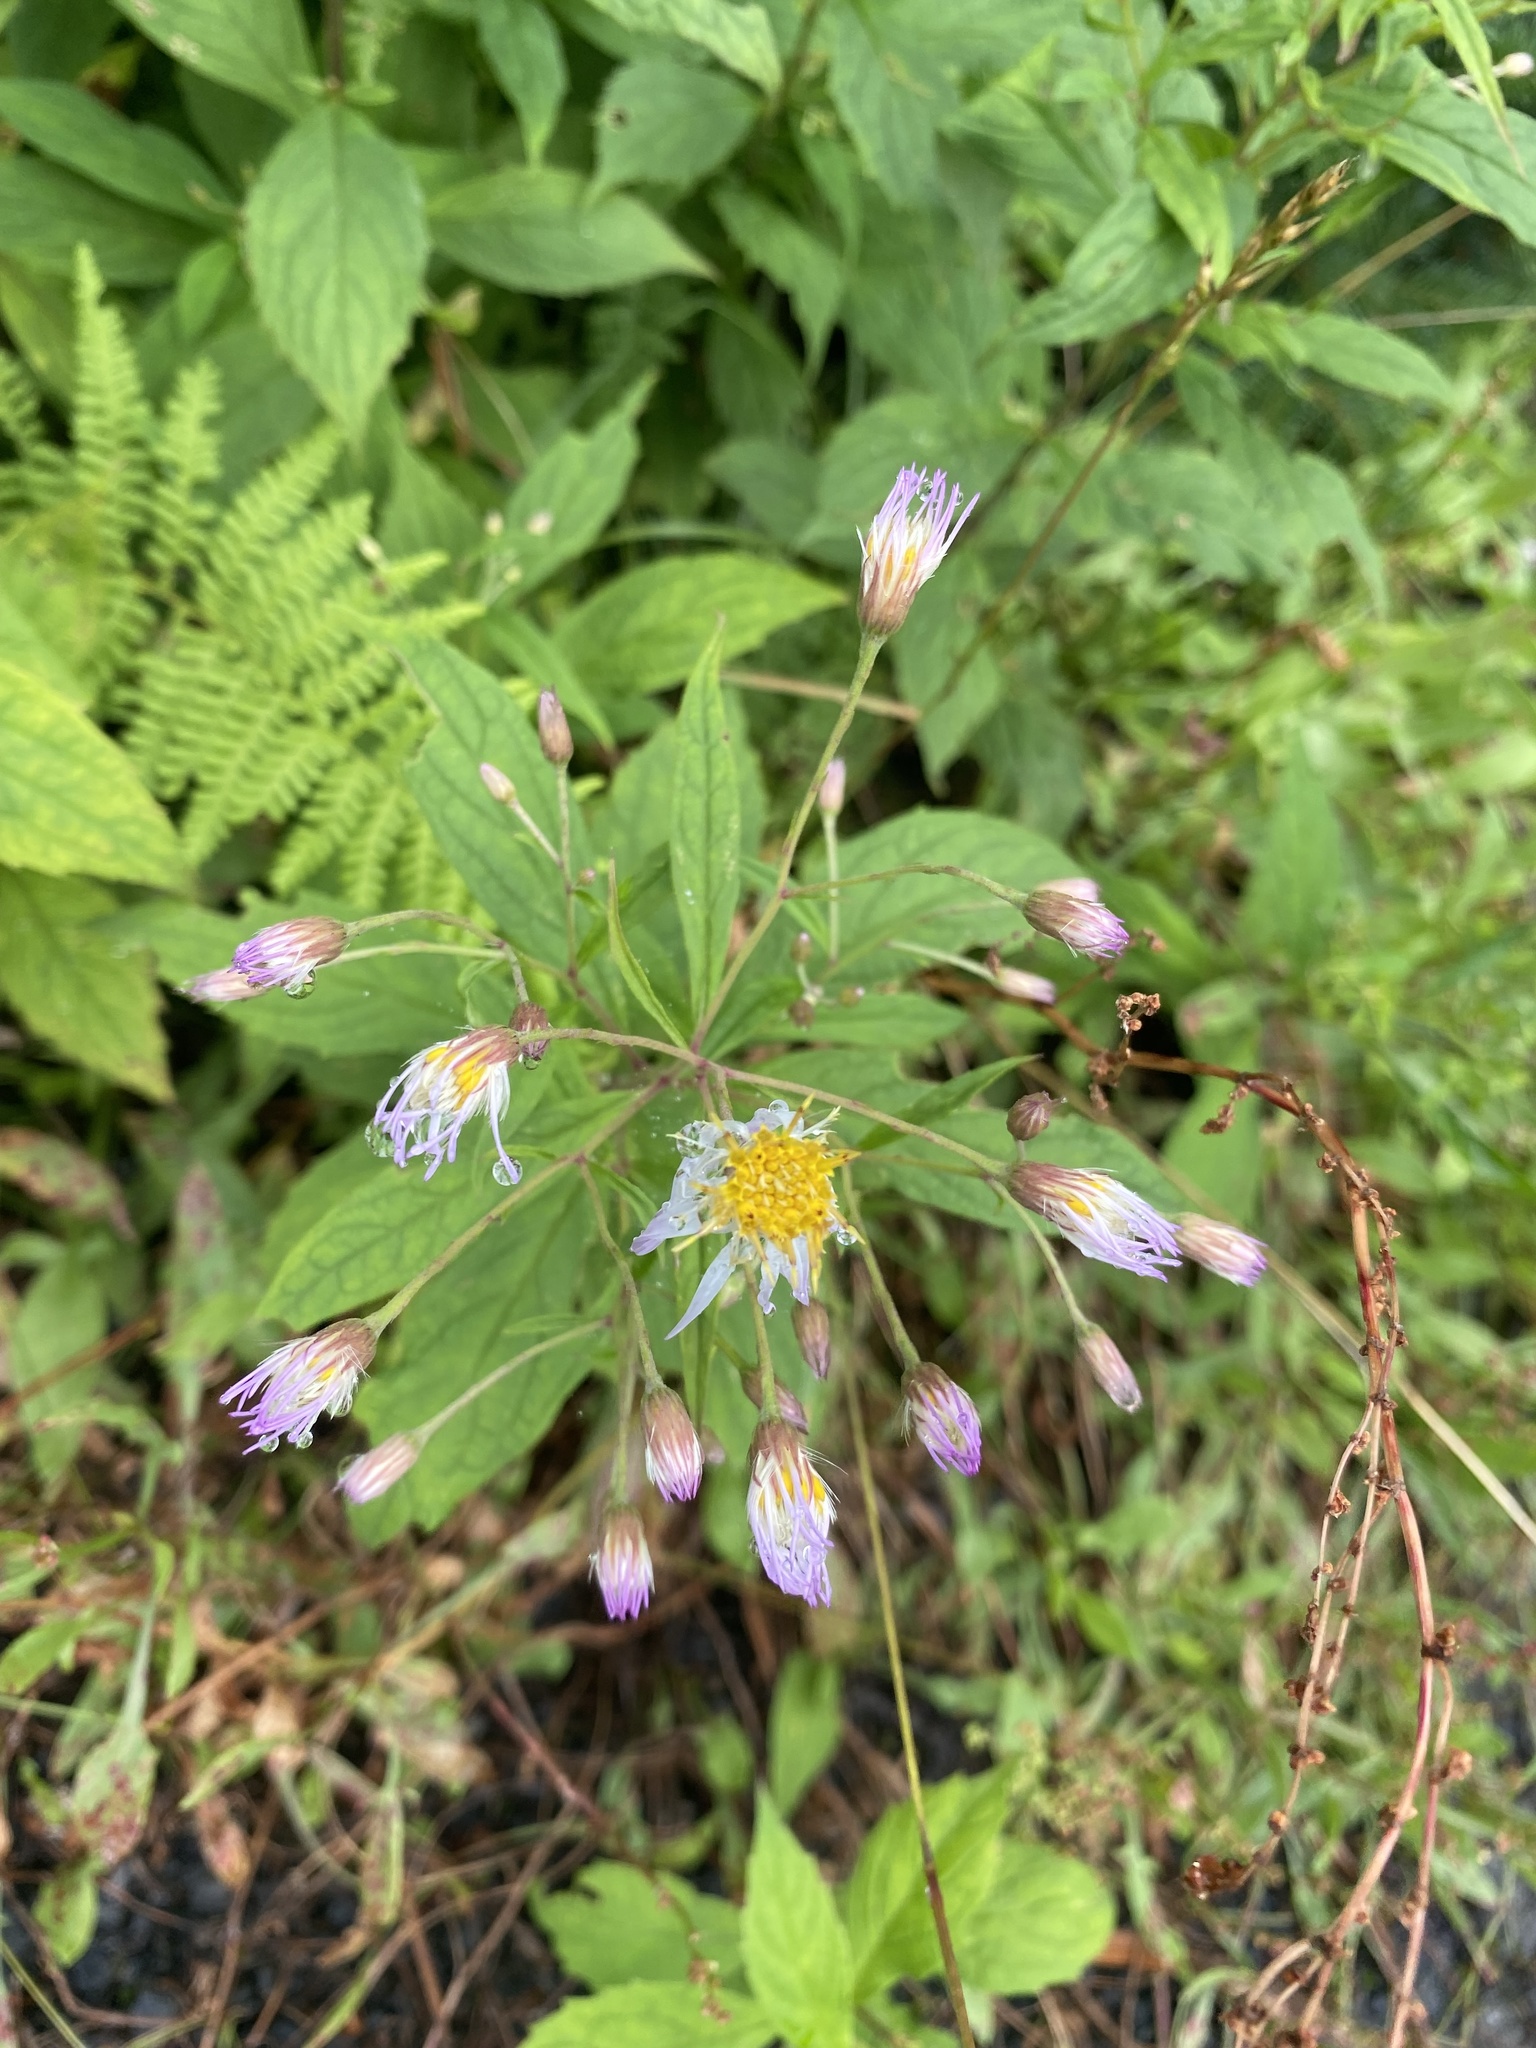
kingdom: Plantae
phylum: Tracheophyta
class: Magnoliopsida
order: Asterales
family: Asteraceae
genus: Oclemena
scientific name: Oclemena acuminata
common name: Mountain aster
